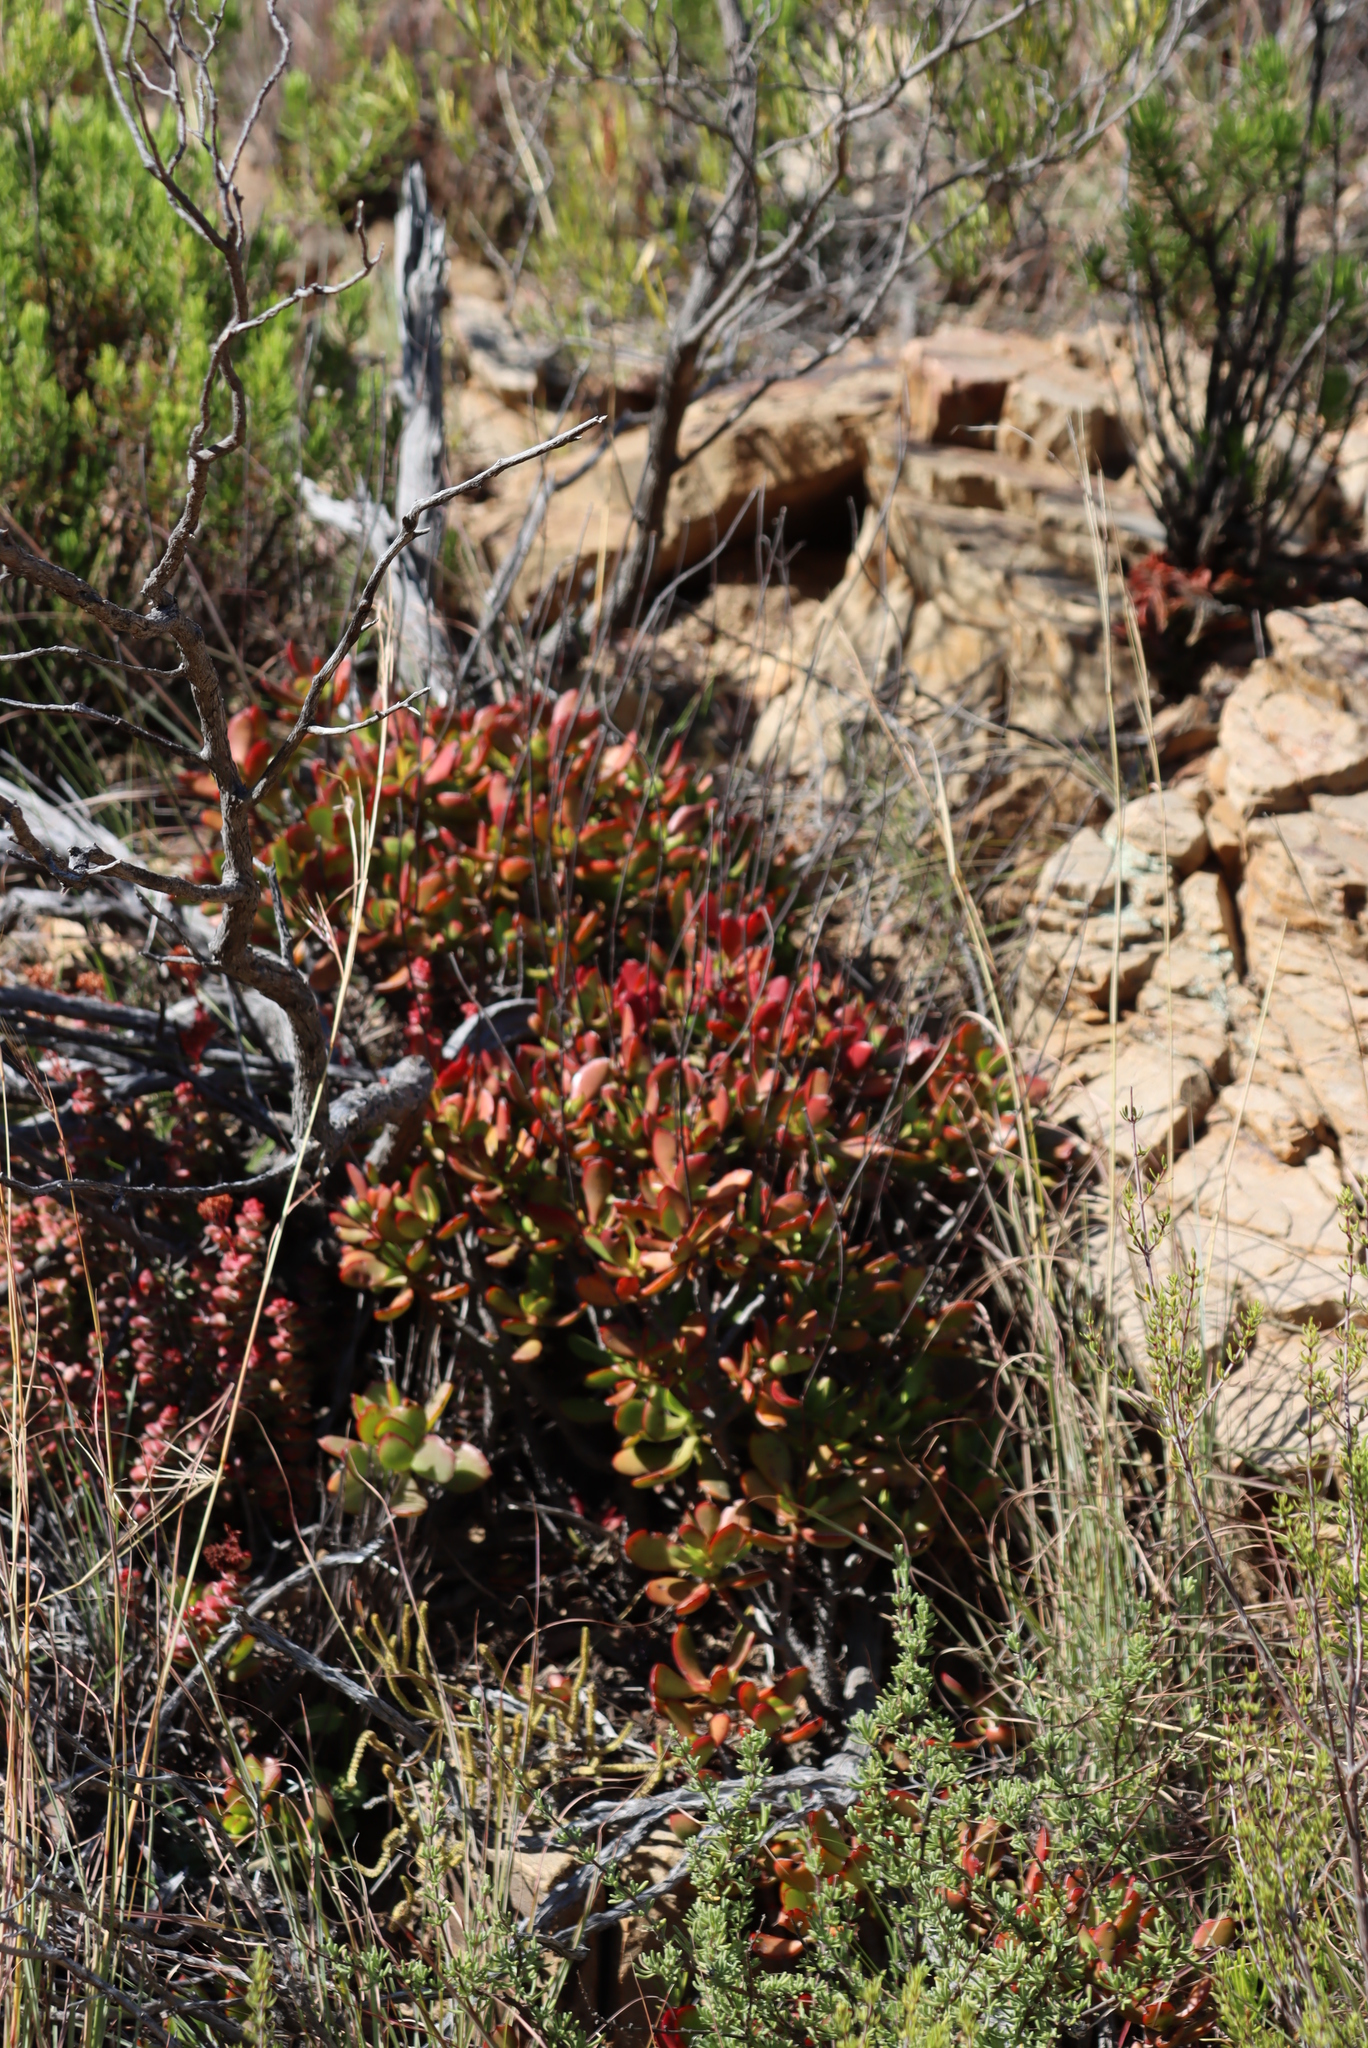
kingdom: Plantae
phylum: Tracheophyta
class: Magnoliopsida
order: Saxifragales
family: Crassulaceae
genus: Crassula
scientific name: Crassula cultrata
